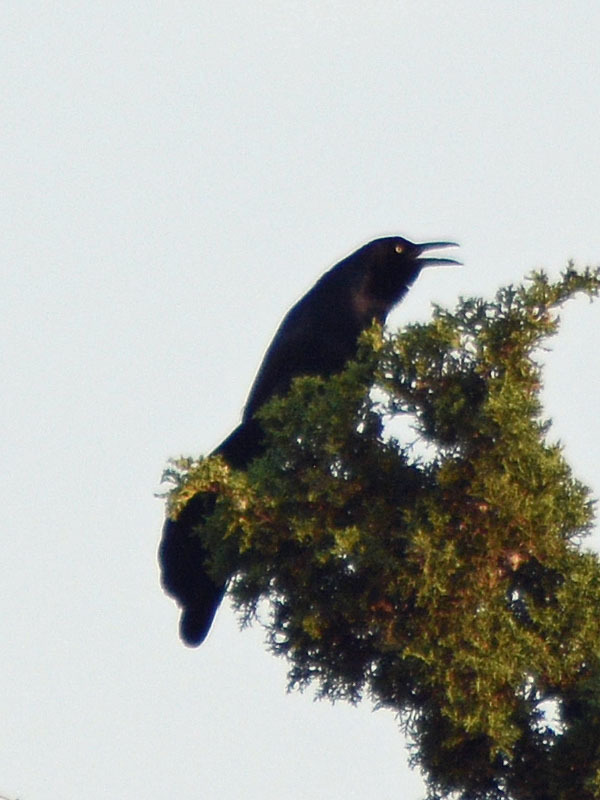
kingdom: Animalia
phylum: Chordata
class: Aves
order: Passeriformes
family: Icteridae
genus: Quiscalus
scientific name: Quiscalus mexicanus
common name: Great-tailed grackle
